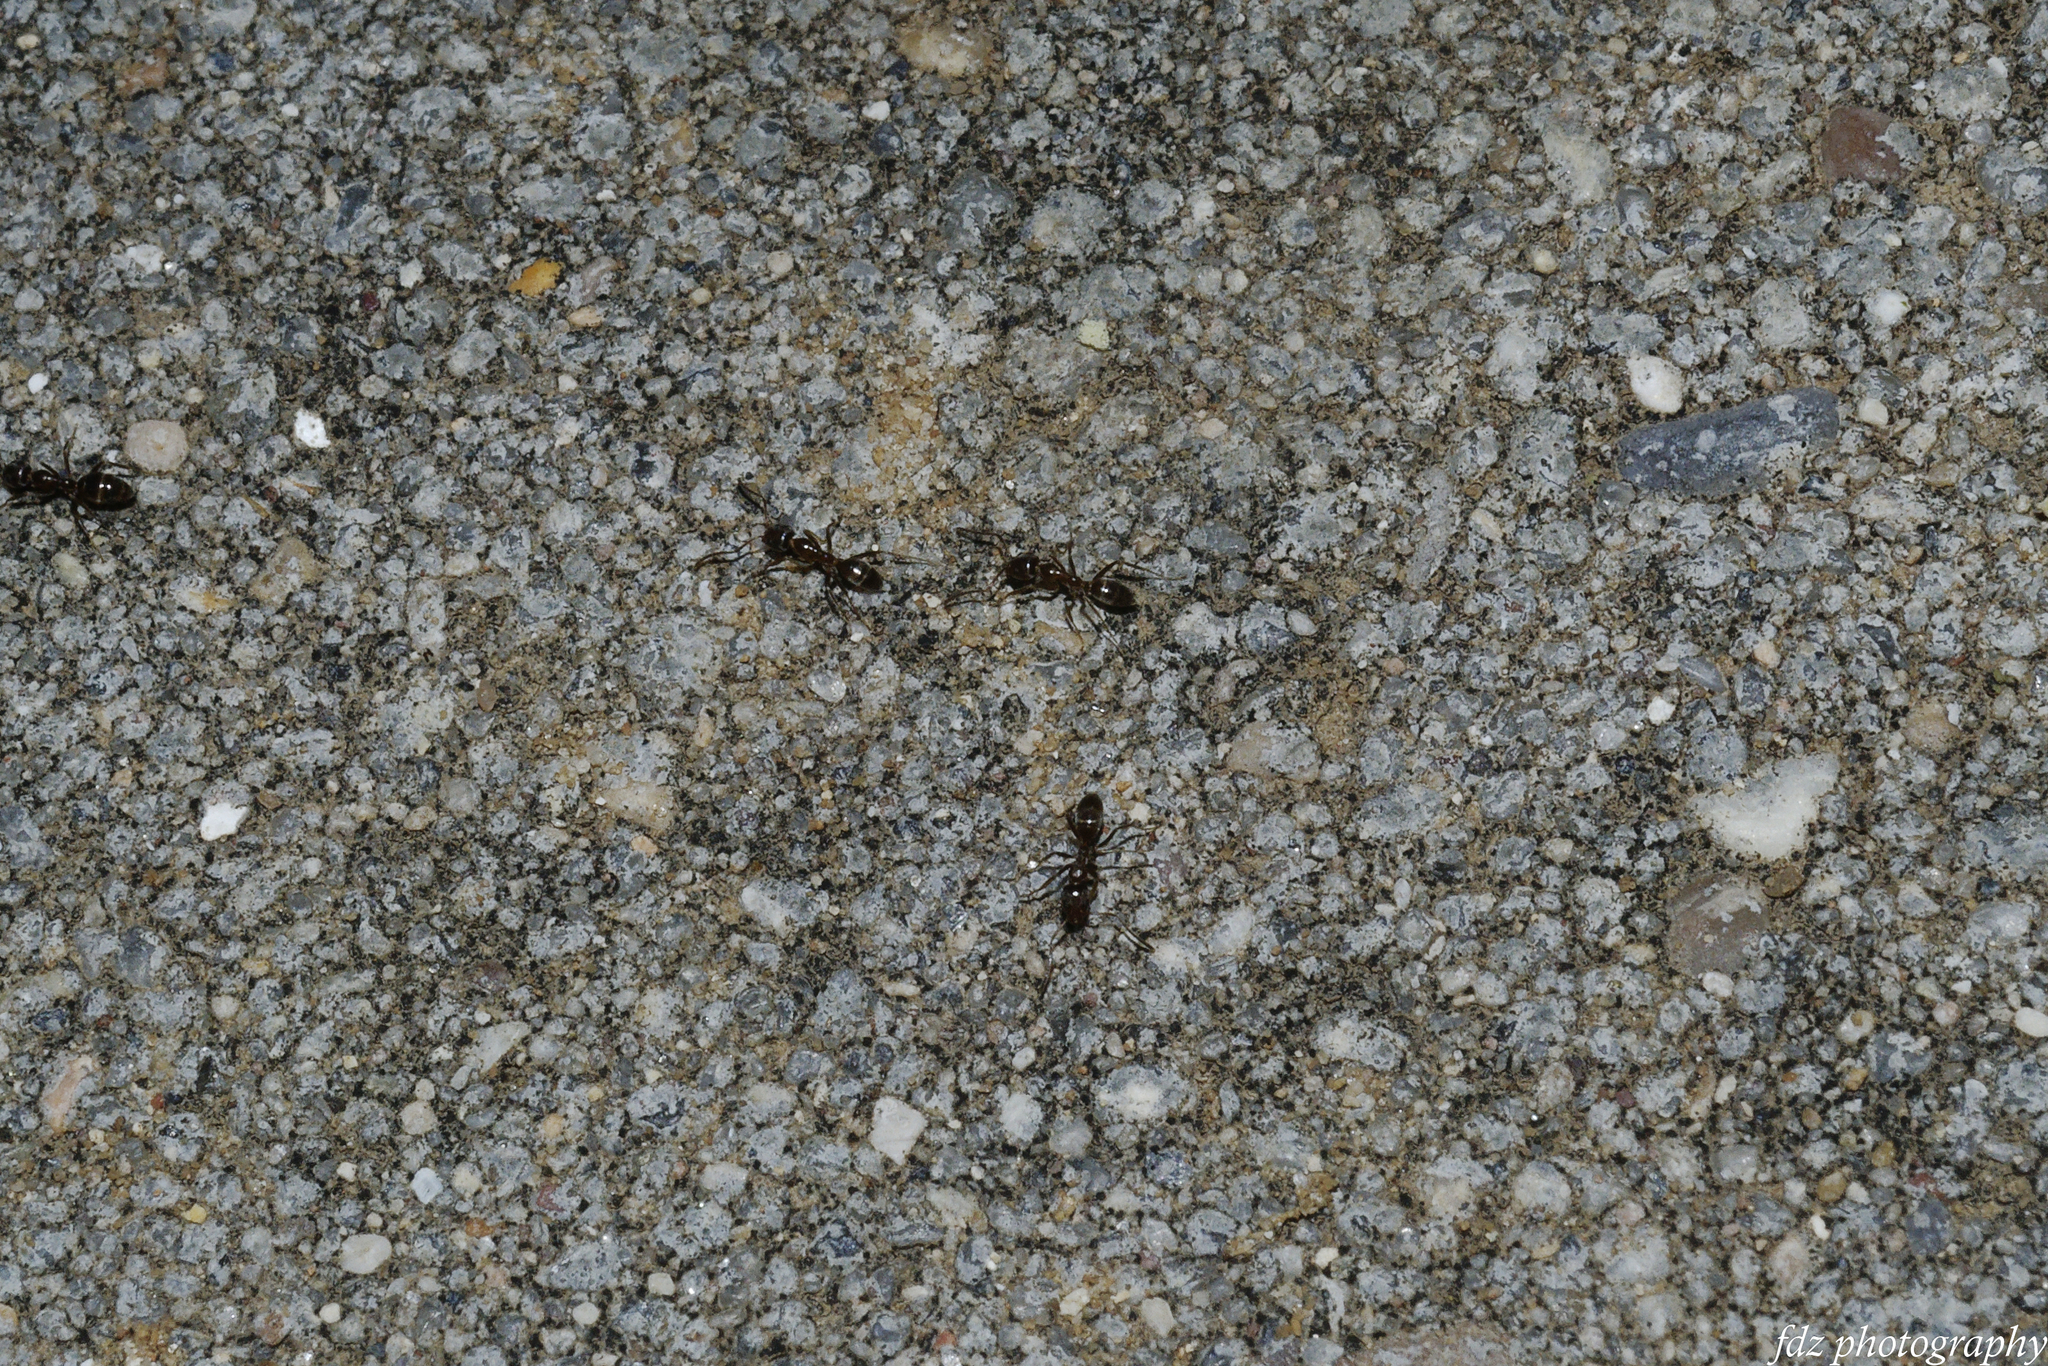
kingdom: Animalia
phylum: Arthropoda
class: Insecta
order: Hymenoptera
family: Formicidae
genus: Linepithema
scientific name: Linepithema humile
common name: Argentine ant
